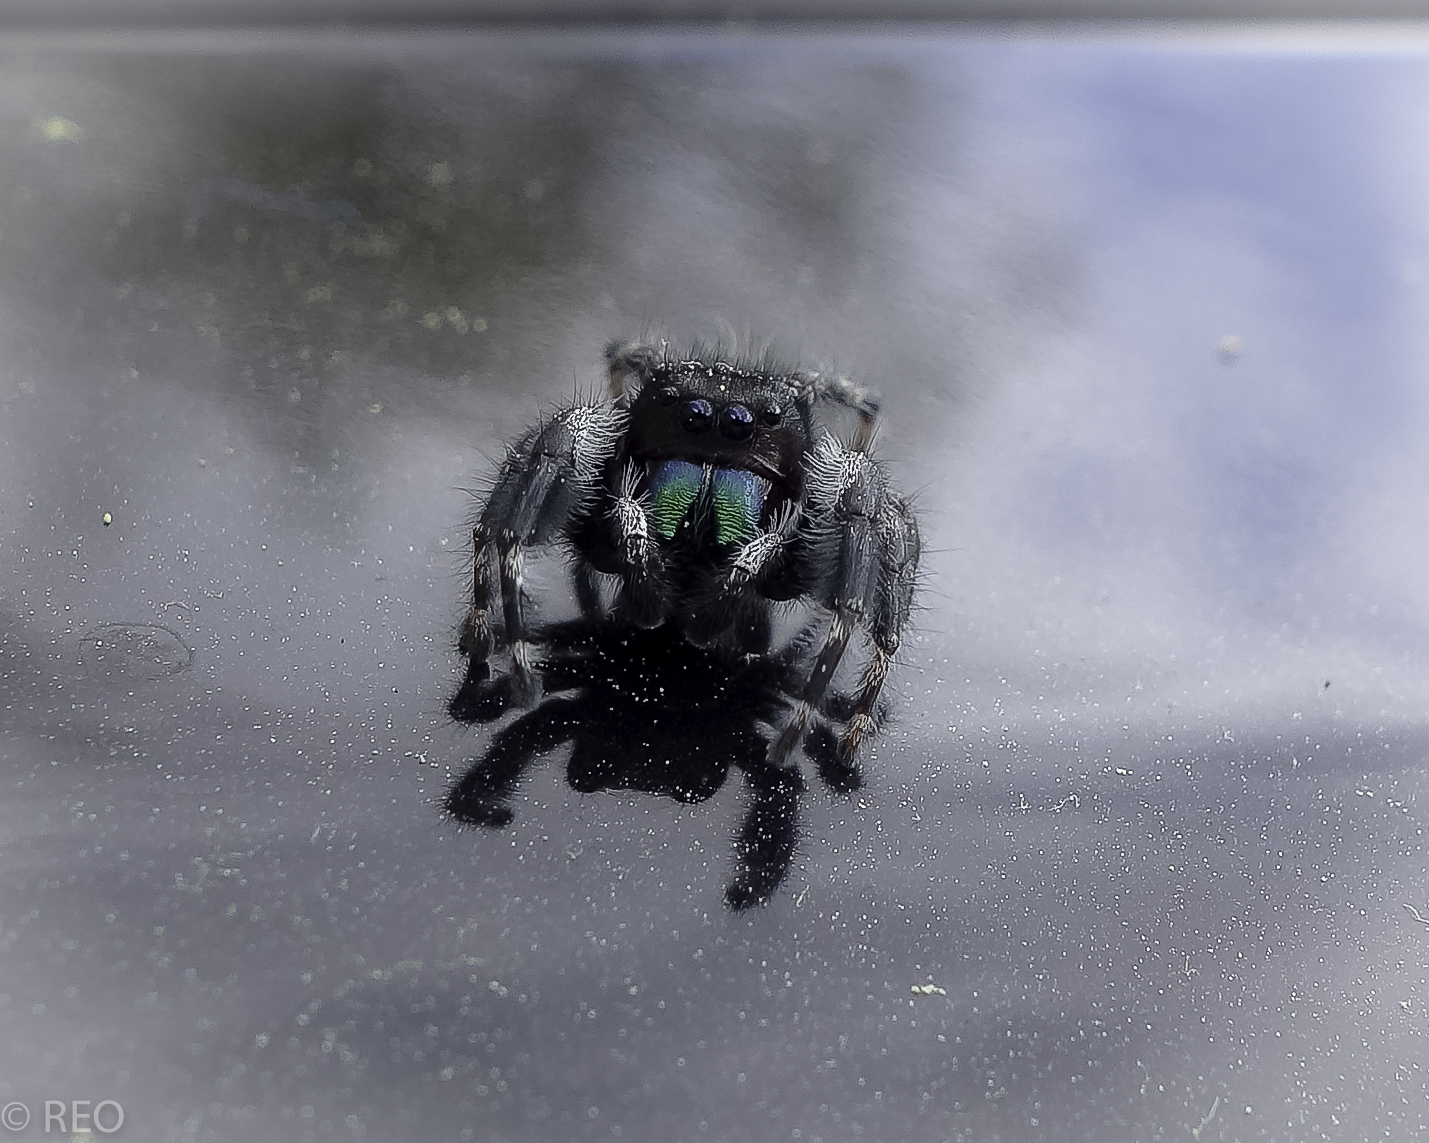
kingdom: Animalia
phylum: Arthropoda
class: Arachnida
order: Araneae
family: Salticidae
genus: Phidippus
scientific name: Phidippus audax
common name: Bold jumper
